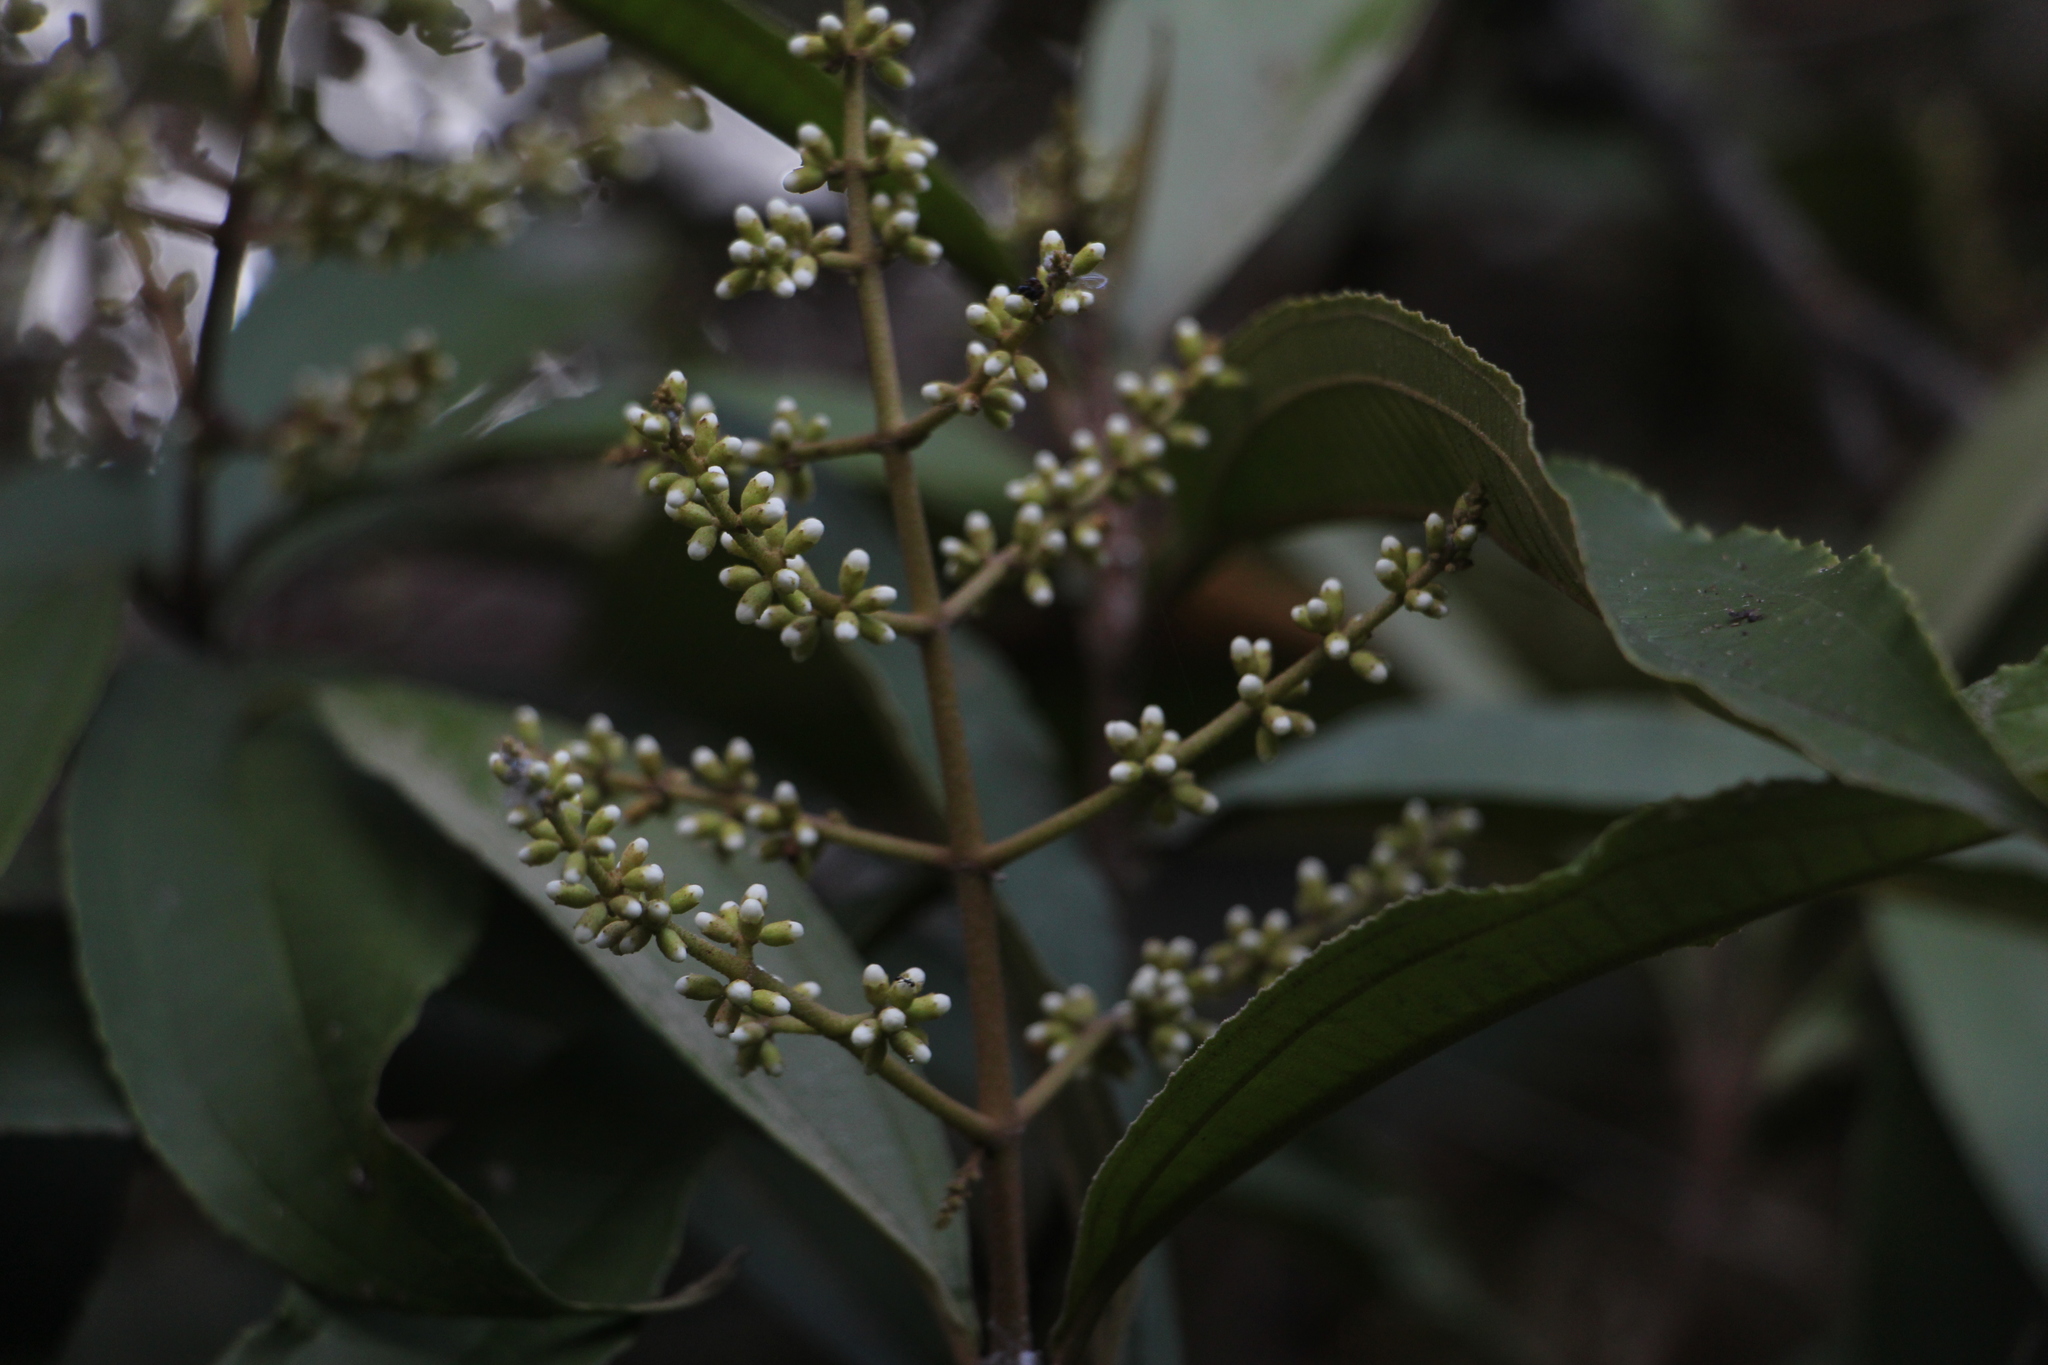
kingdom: Plantae
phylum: Tracheophyta
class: Magnoliopsida
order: Myrtales
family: Melastomataceae
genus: Miconia
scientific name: Miconia spicellata
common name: Bonpland maya
